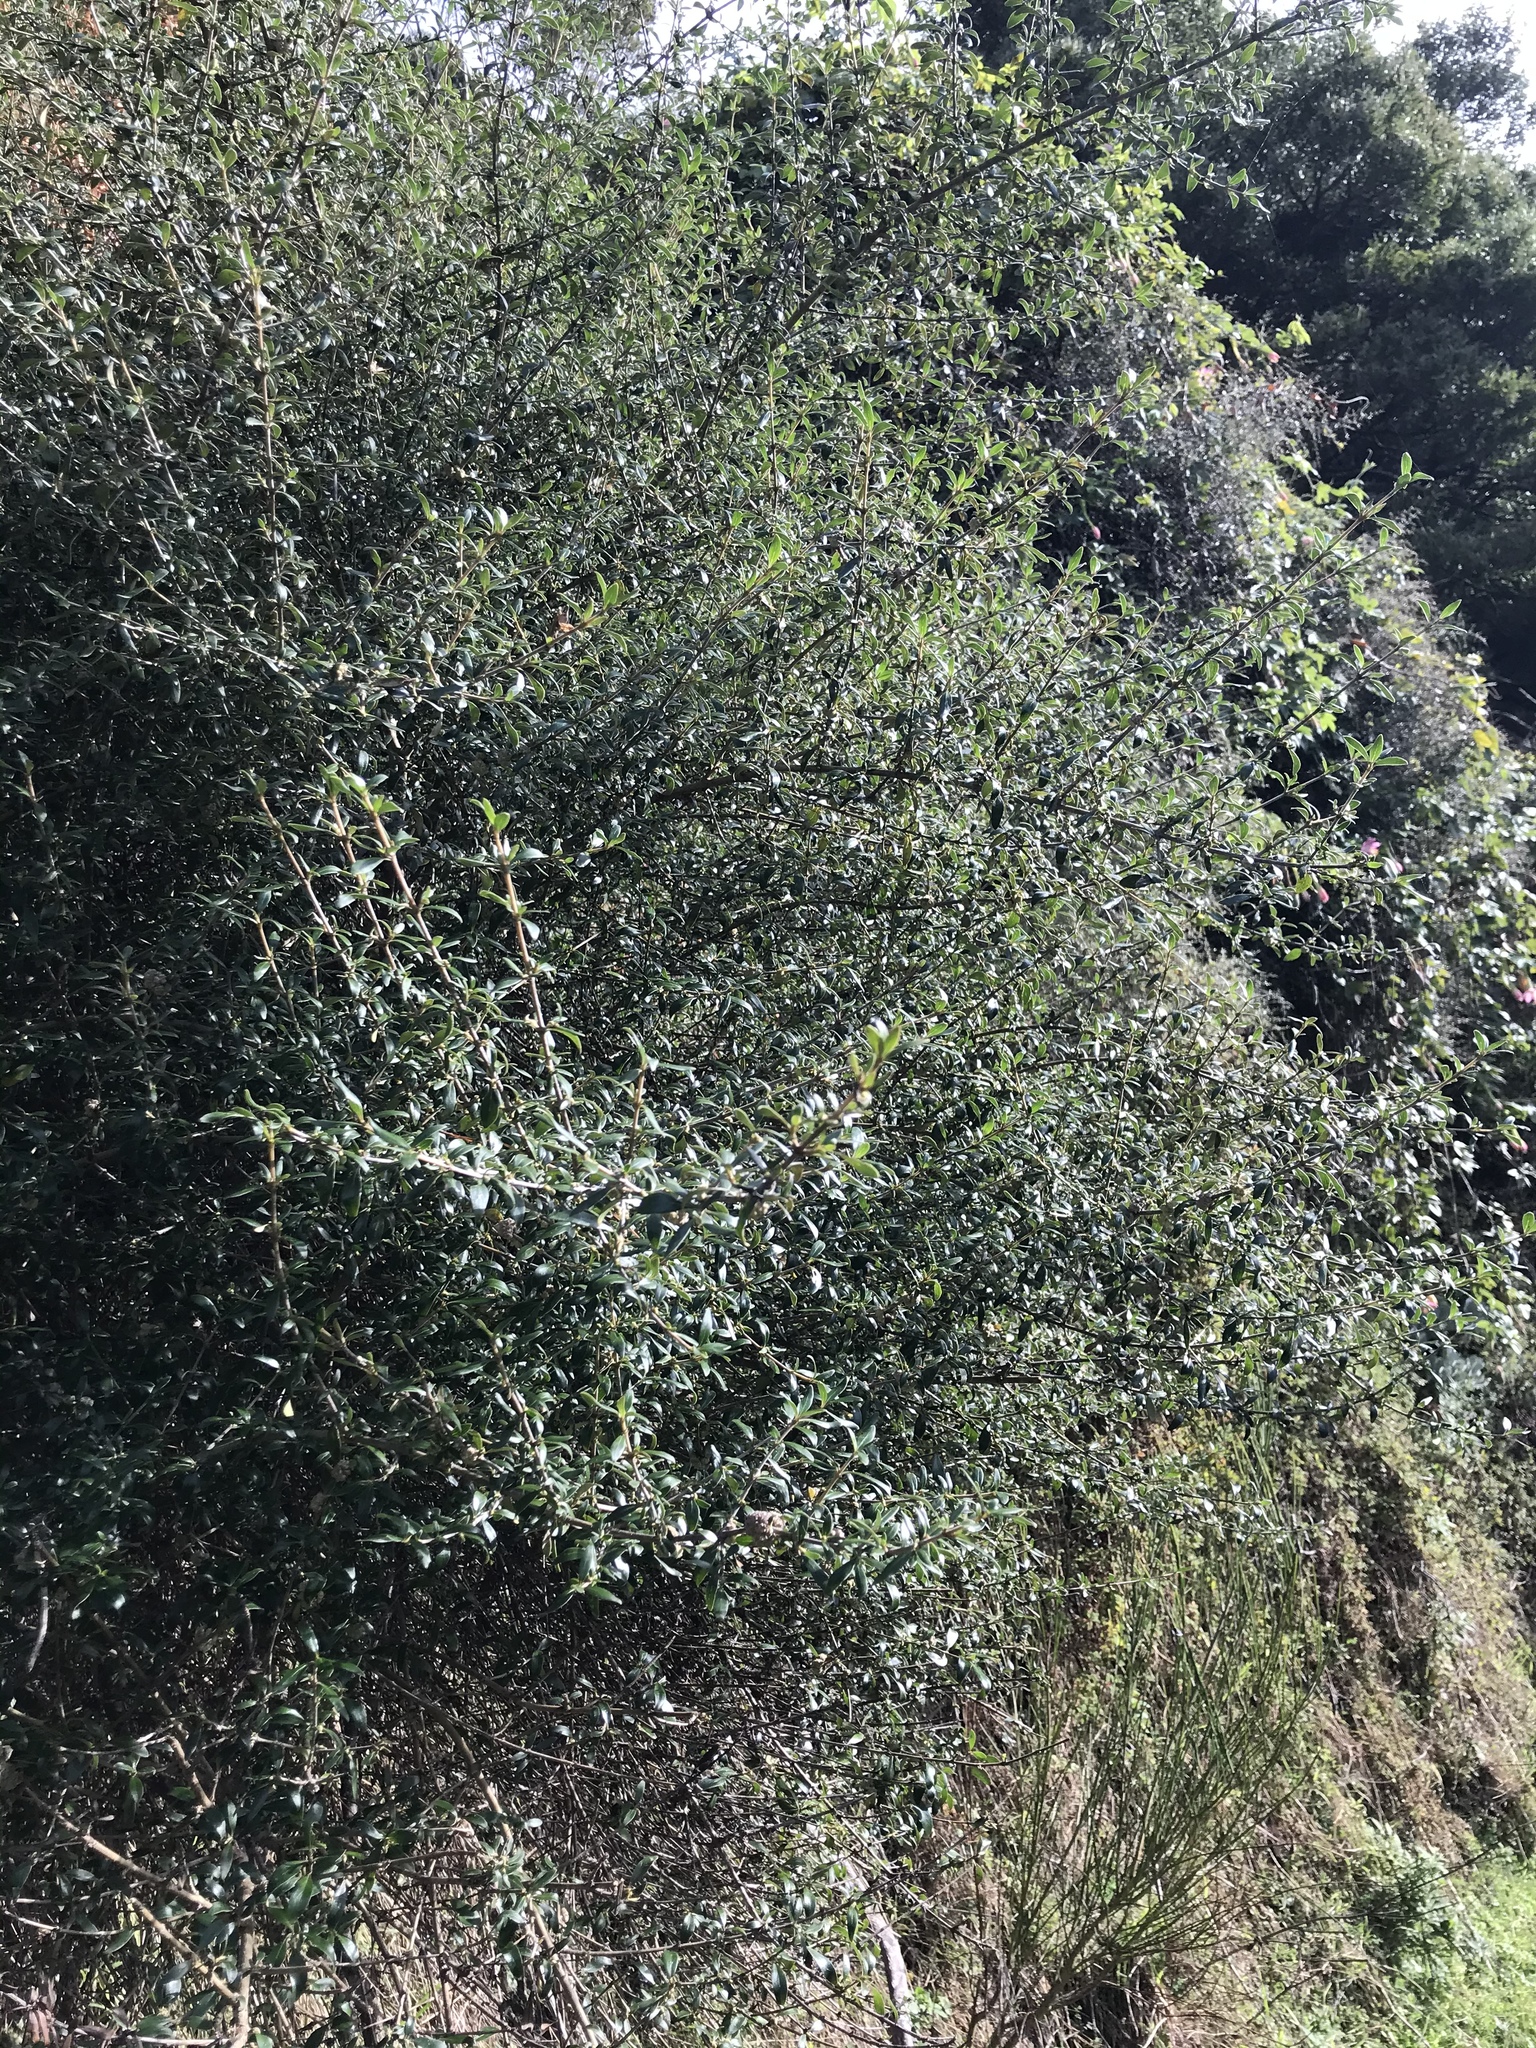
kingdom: Plantae
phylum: Tracheophyta
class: Magnoliopsida
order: Gentianales
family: Rubiaceae
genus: Coprosma
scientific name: Coprosma propinqua
